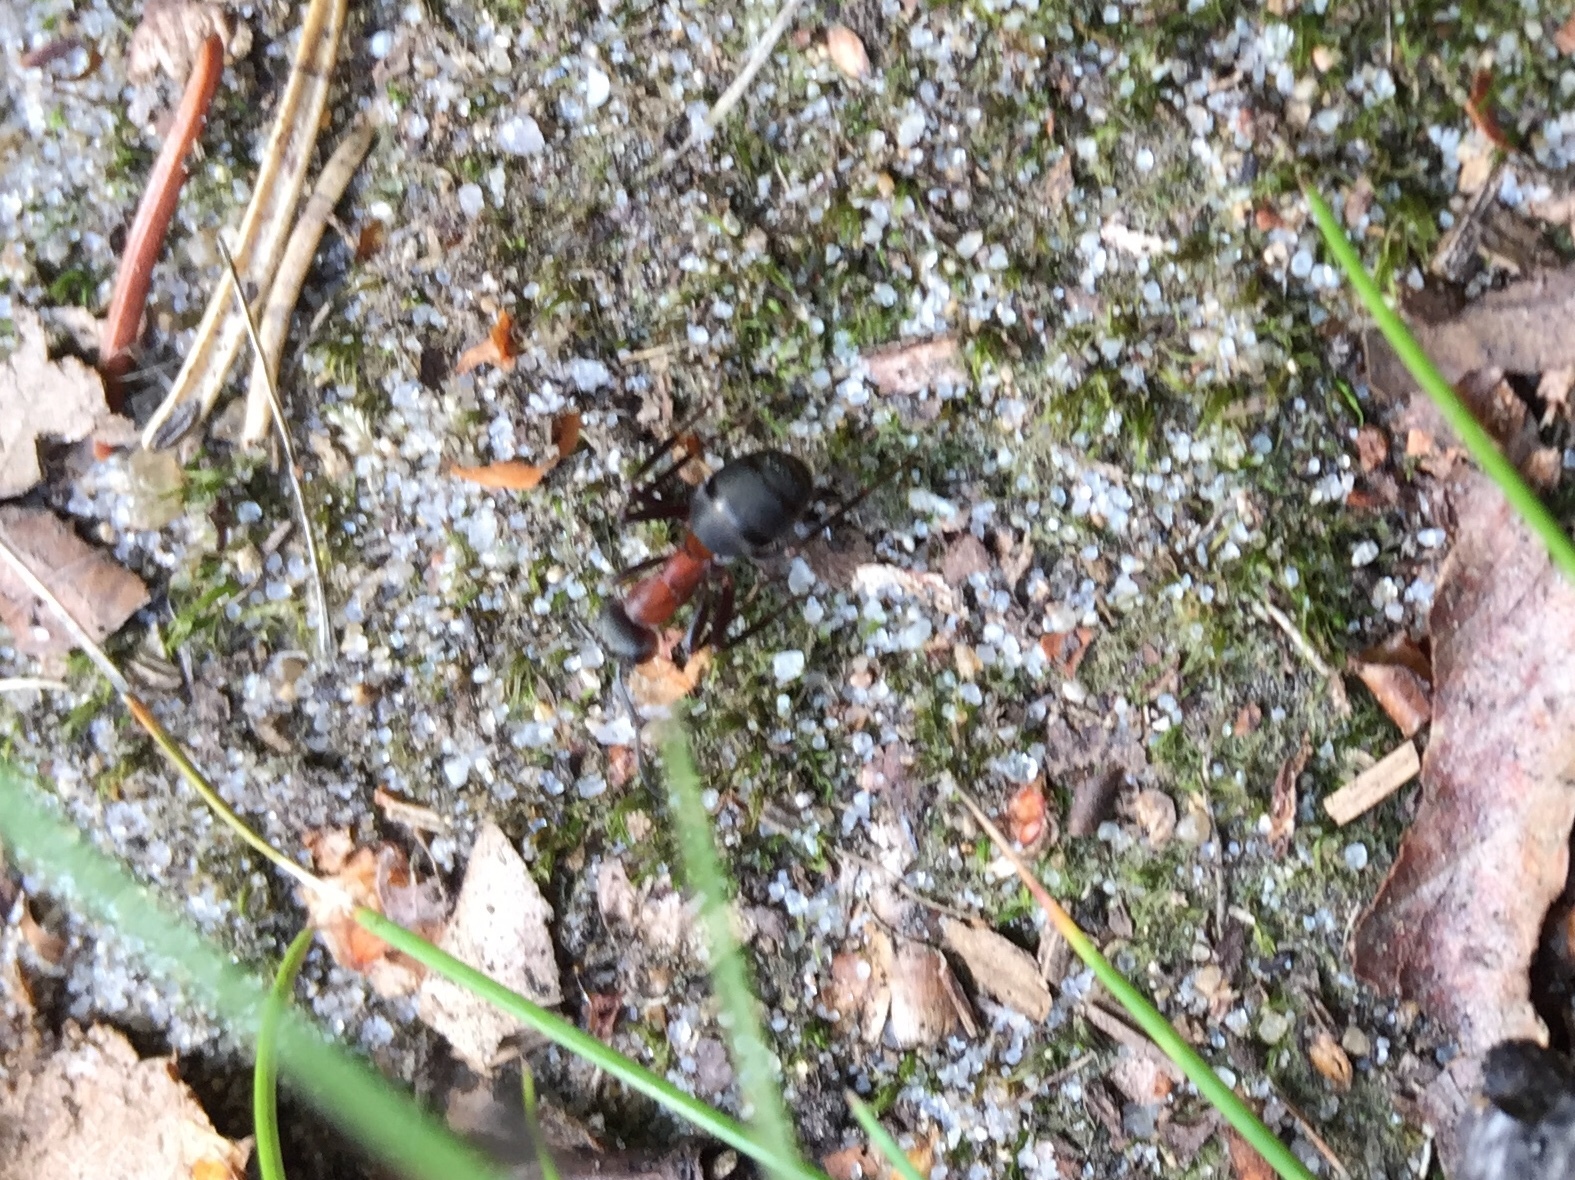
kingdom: Animalia
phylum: Arthropoda
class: Insecta
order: Hymenoptera
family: Formicidae
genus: Formica
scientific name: Formica rufa
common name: Red wood ant
